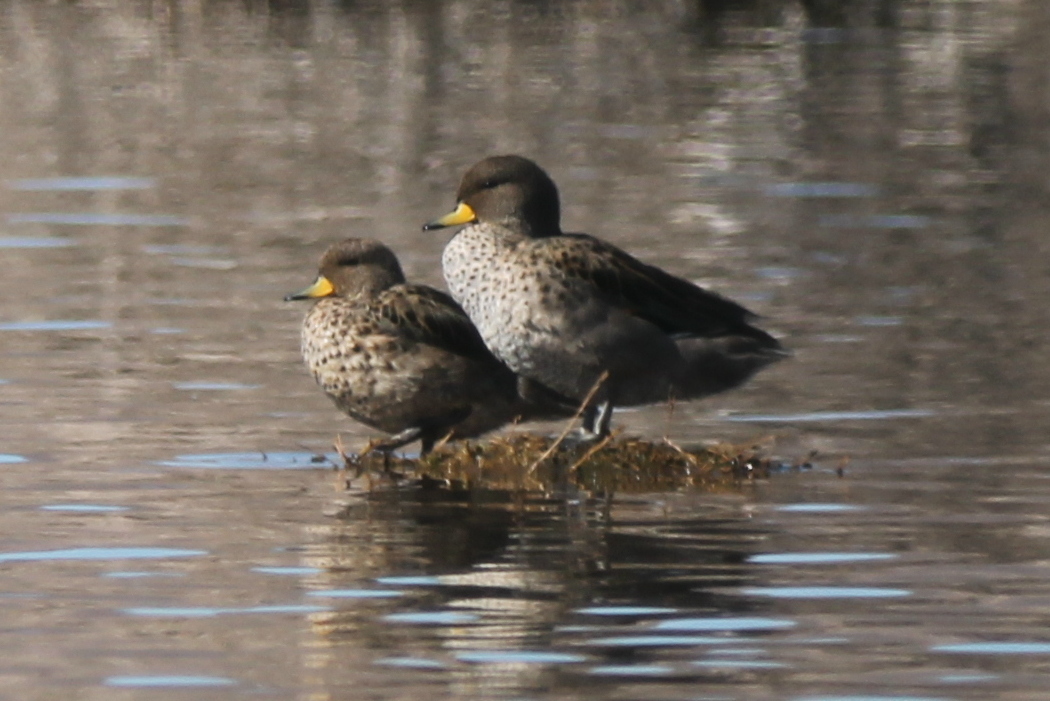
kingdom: Animalia
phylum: Chordata
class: Aves
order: Anseriformes
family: Anatidae
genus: Anas
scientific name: Anas flavirostris
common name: Yellow-billed teal
